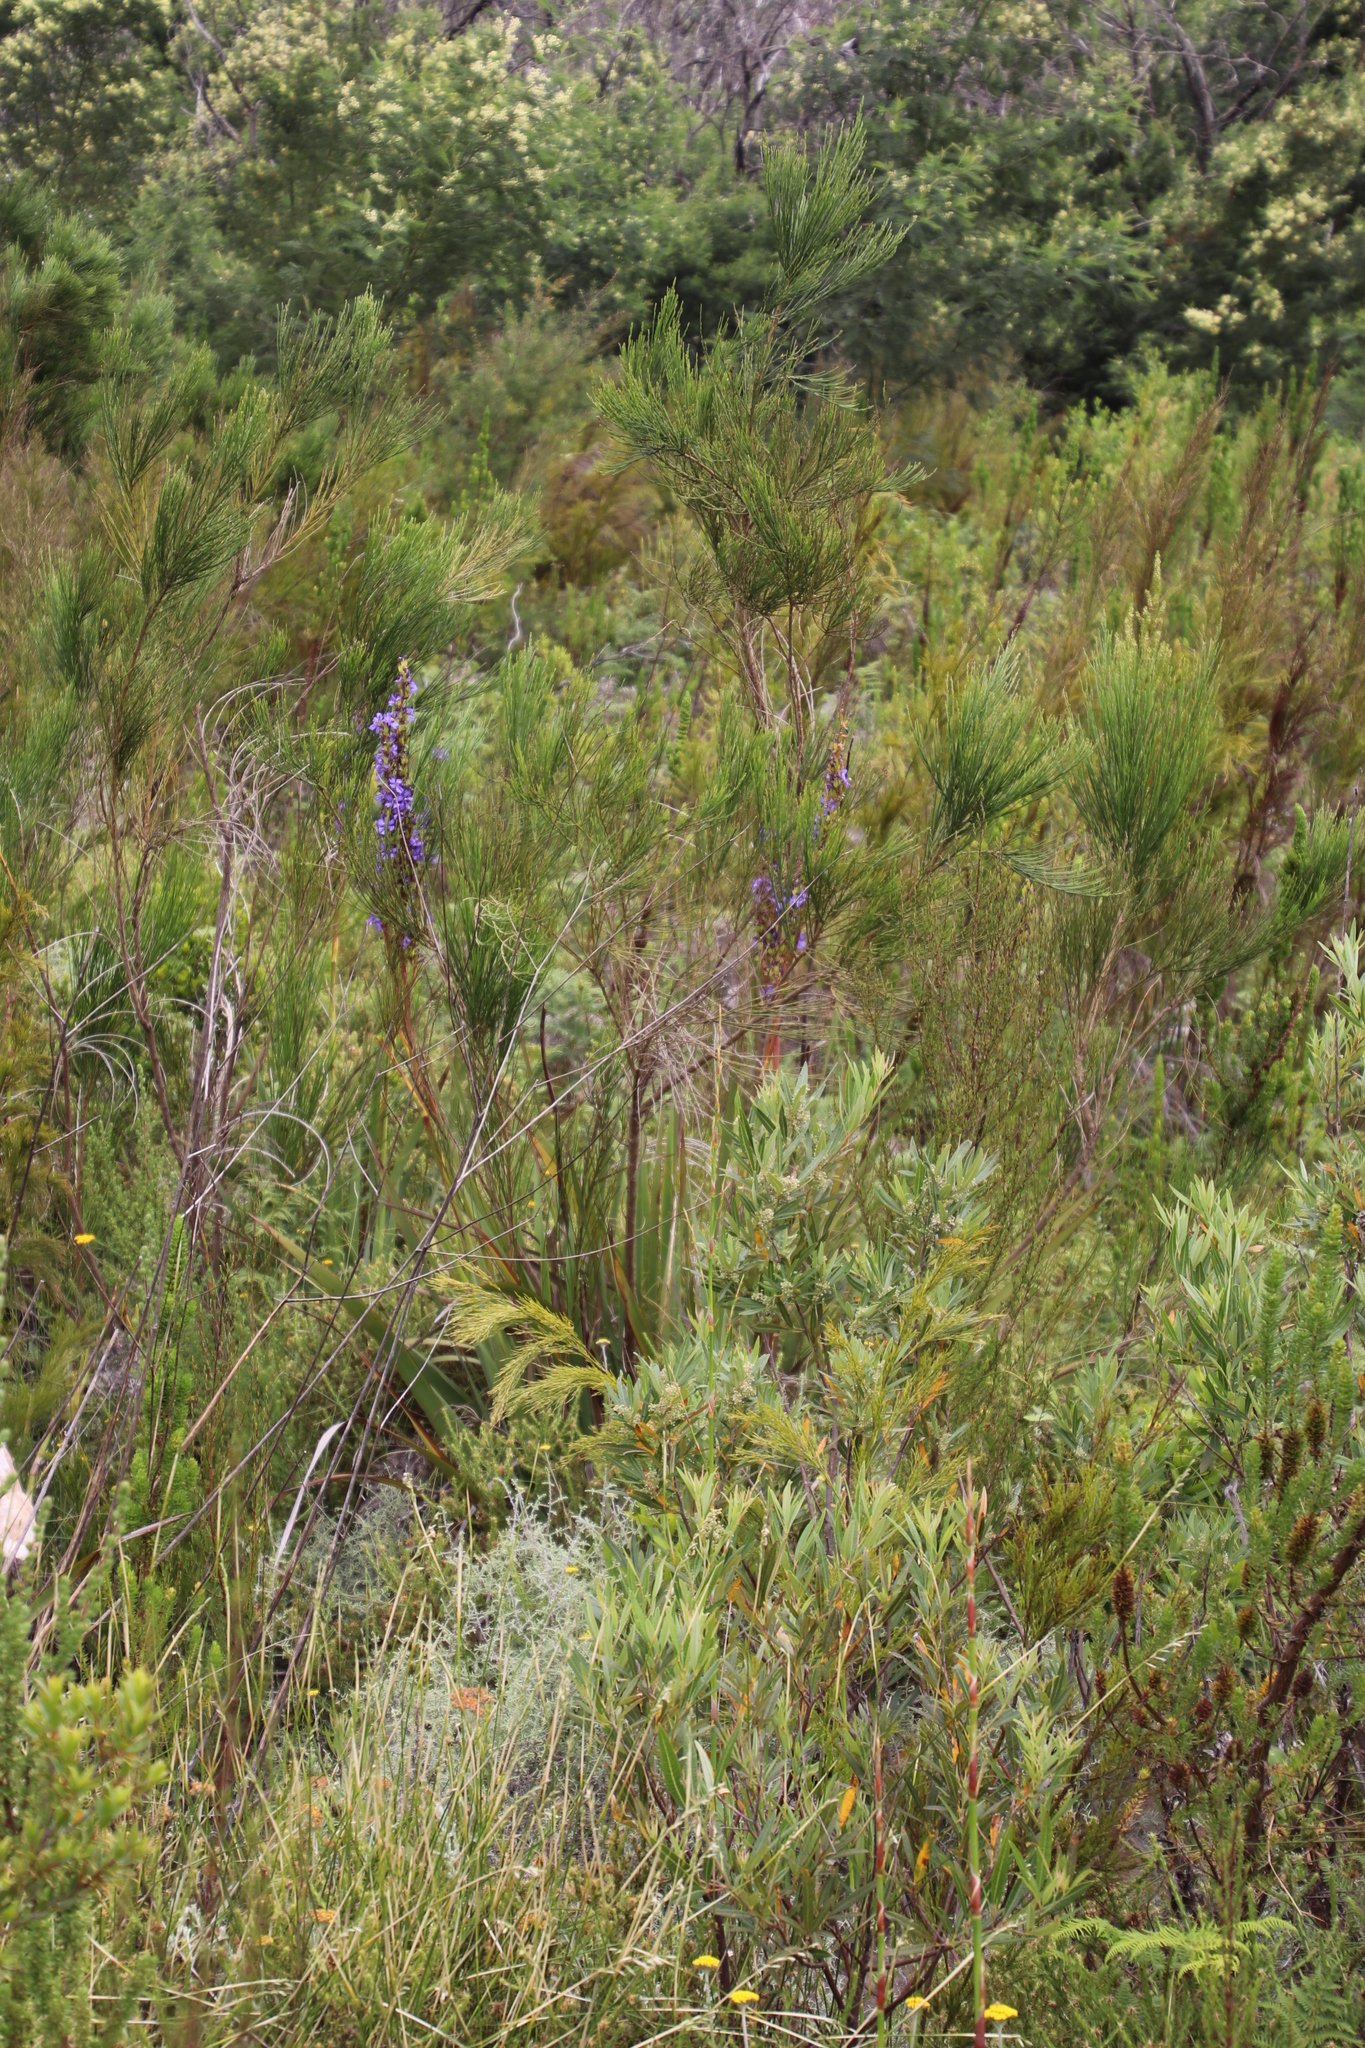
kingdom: Plantae
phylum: Tracheophyta
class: Liliopsida
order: Asparagales
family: Iridaceae
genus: Aristea
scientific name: Aristea capitata
